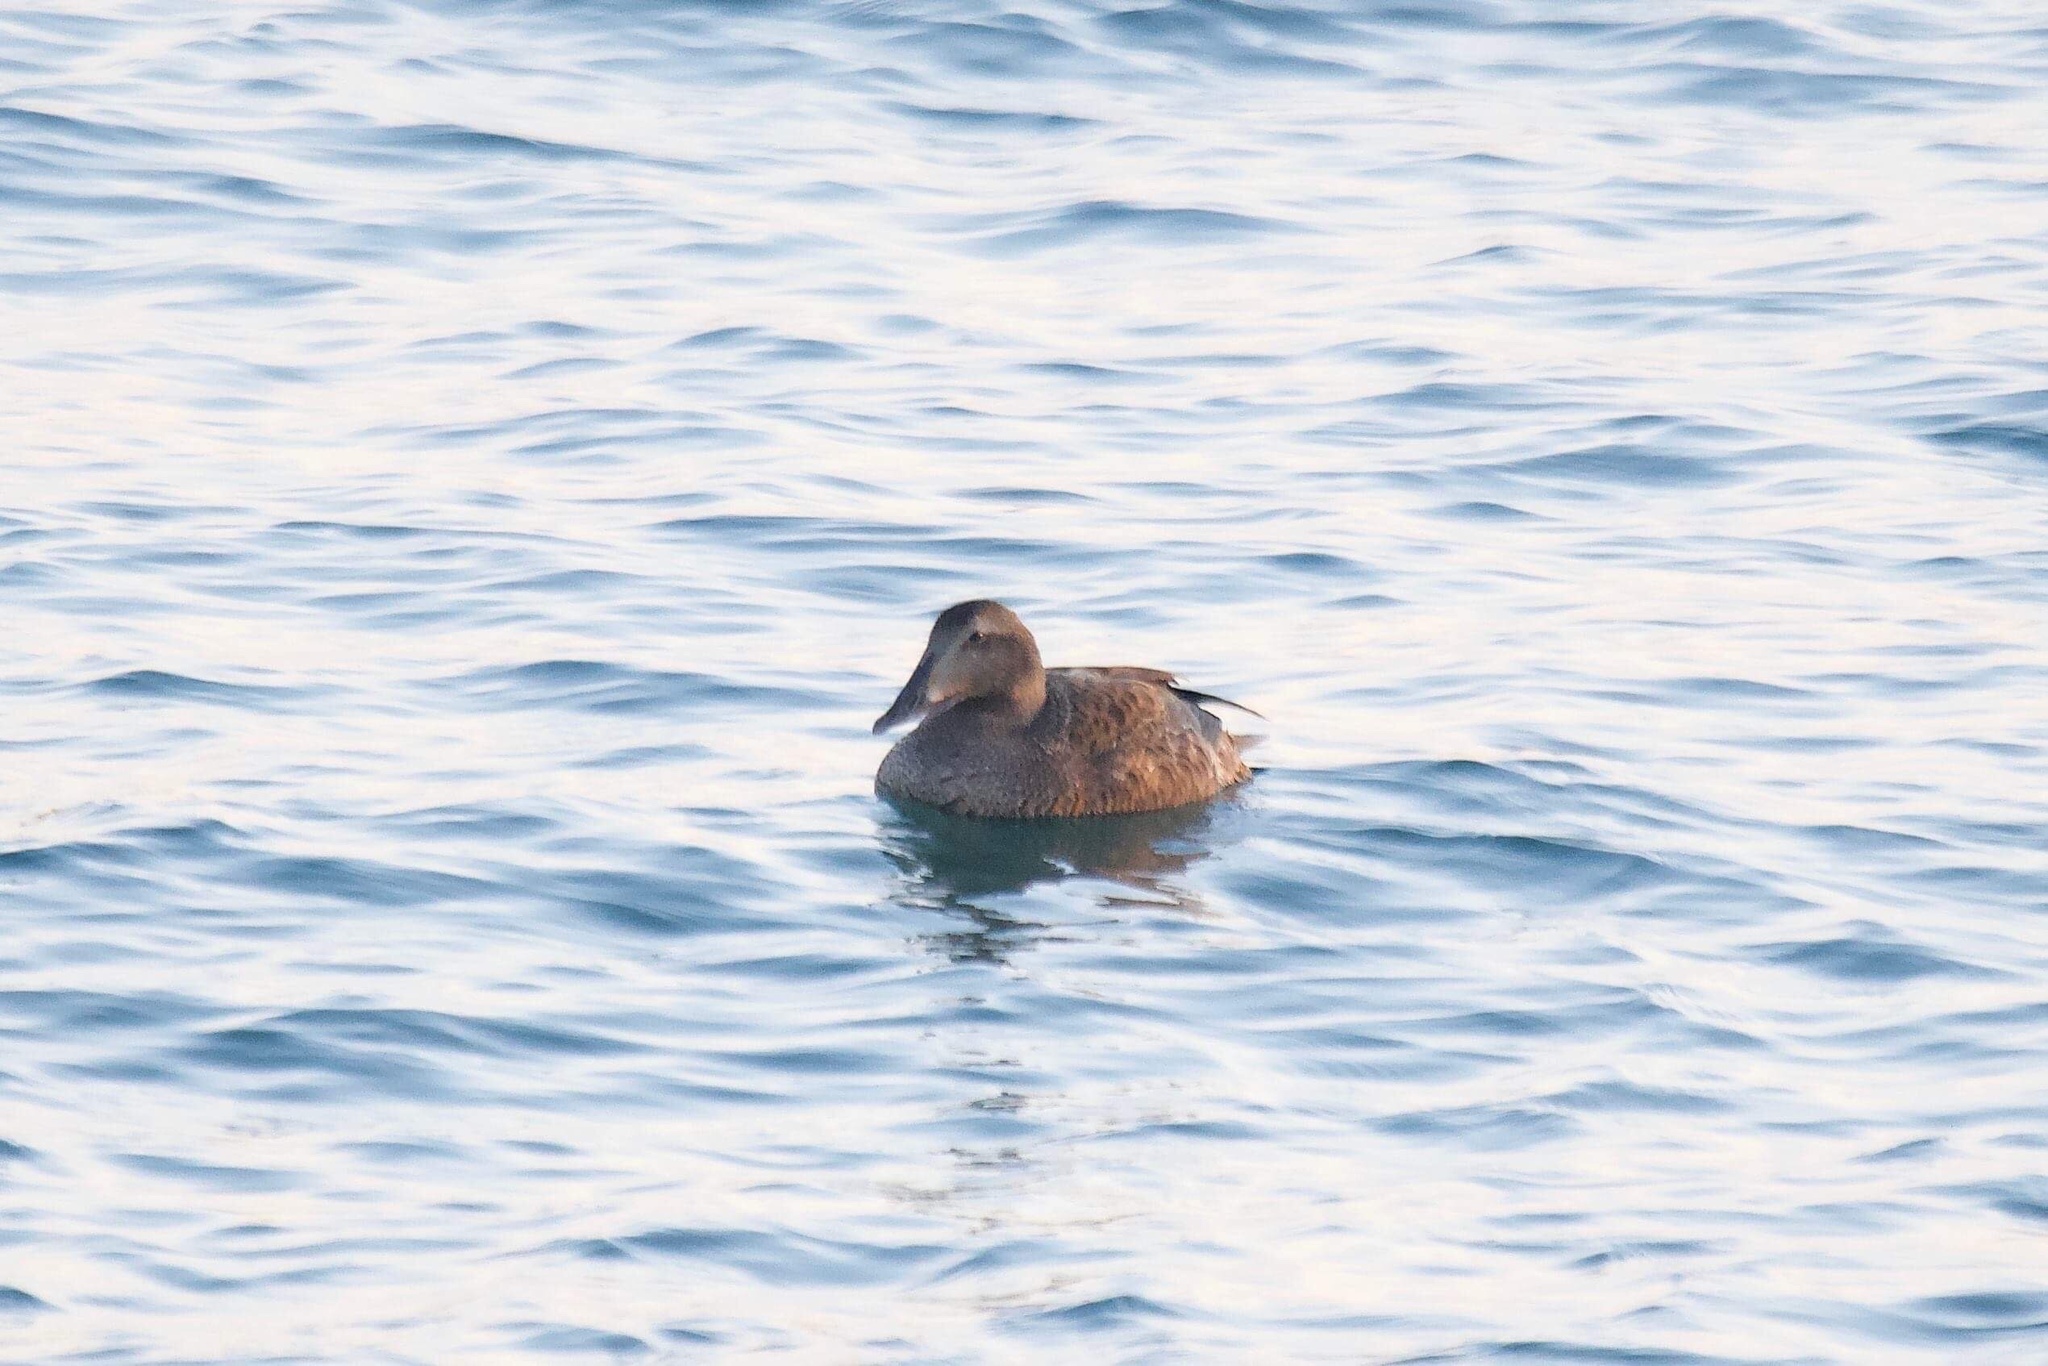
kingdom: Animalia
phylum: Chordata
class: Aves
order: Anseriformes
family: Anatidae
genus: Somateria
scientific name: Somateria mollissima
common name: Common eider
